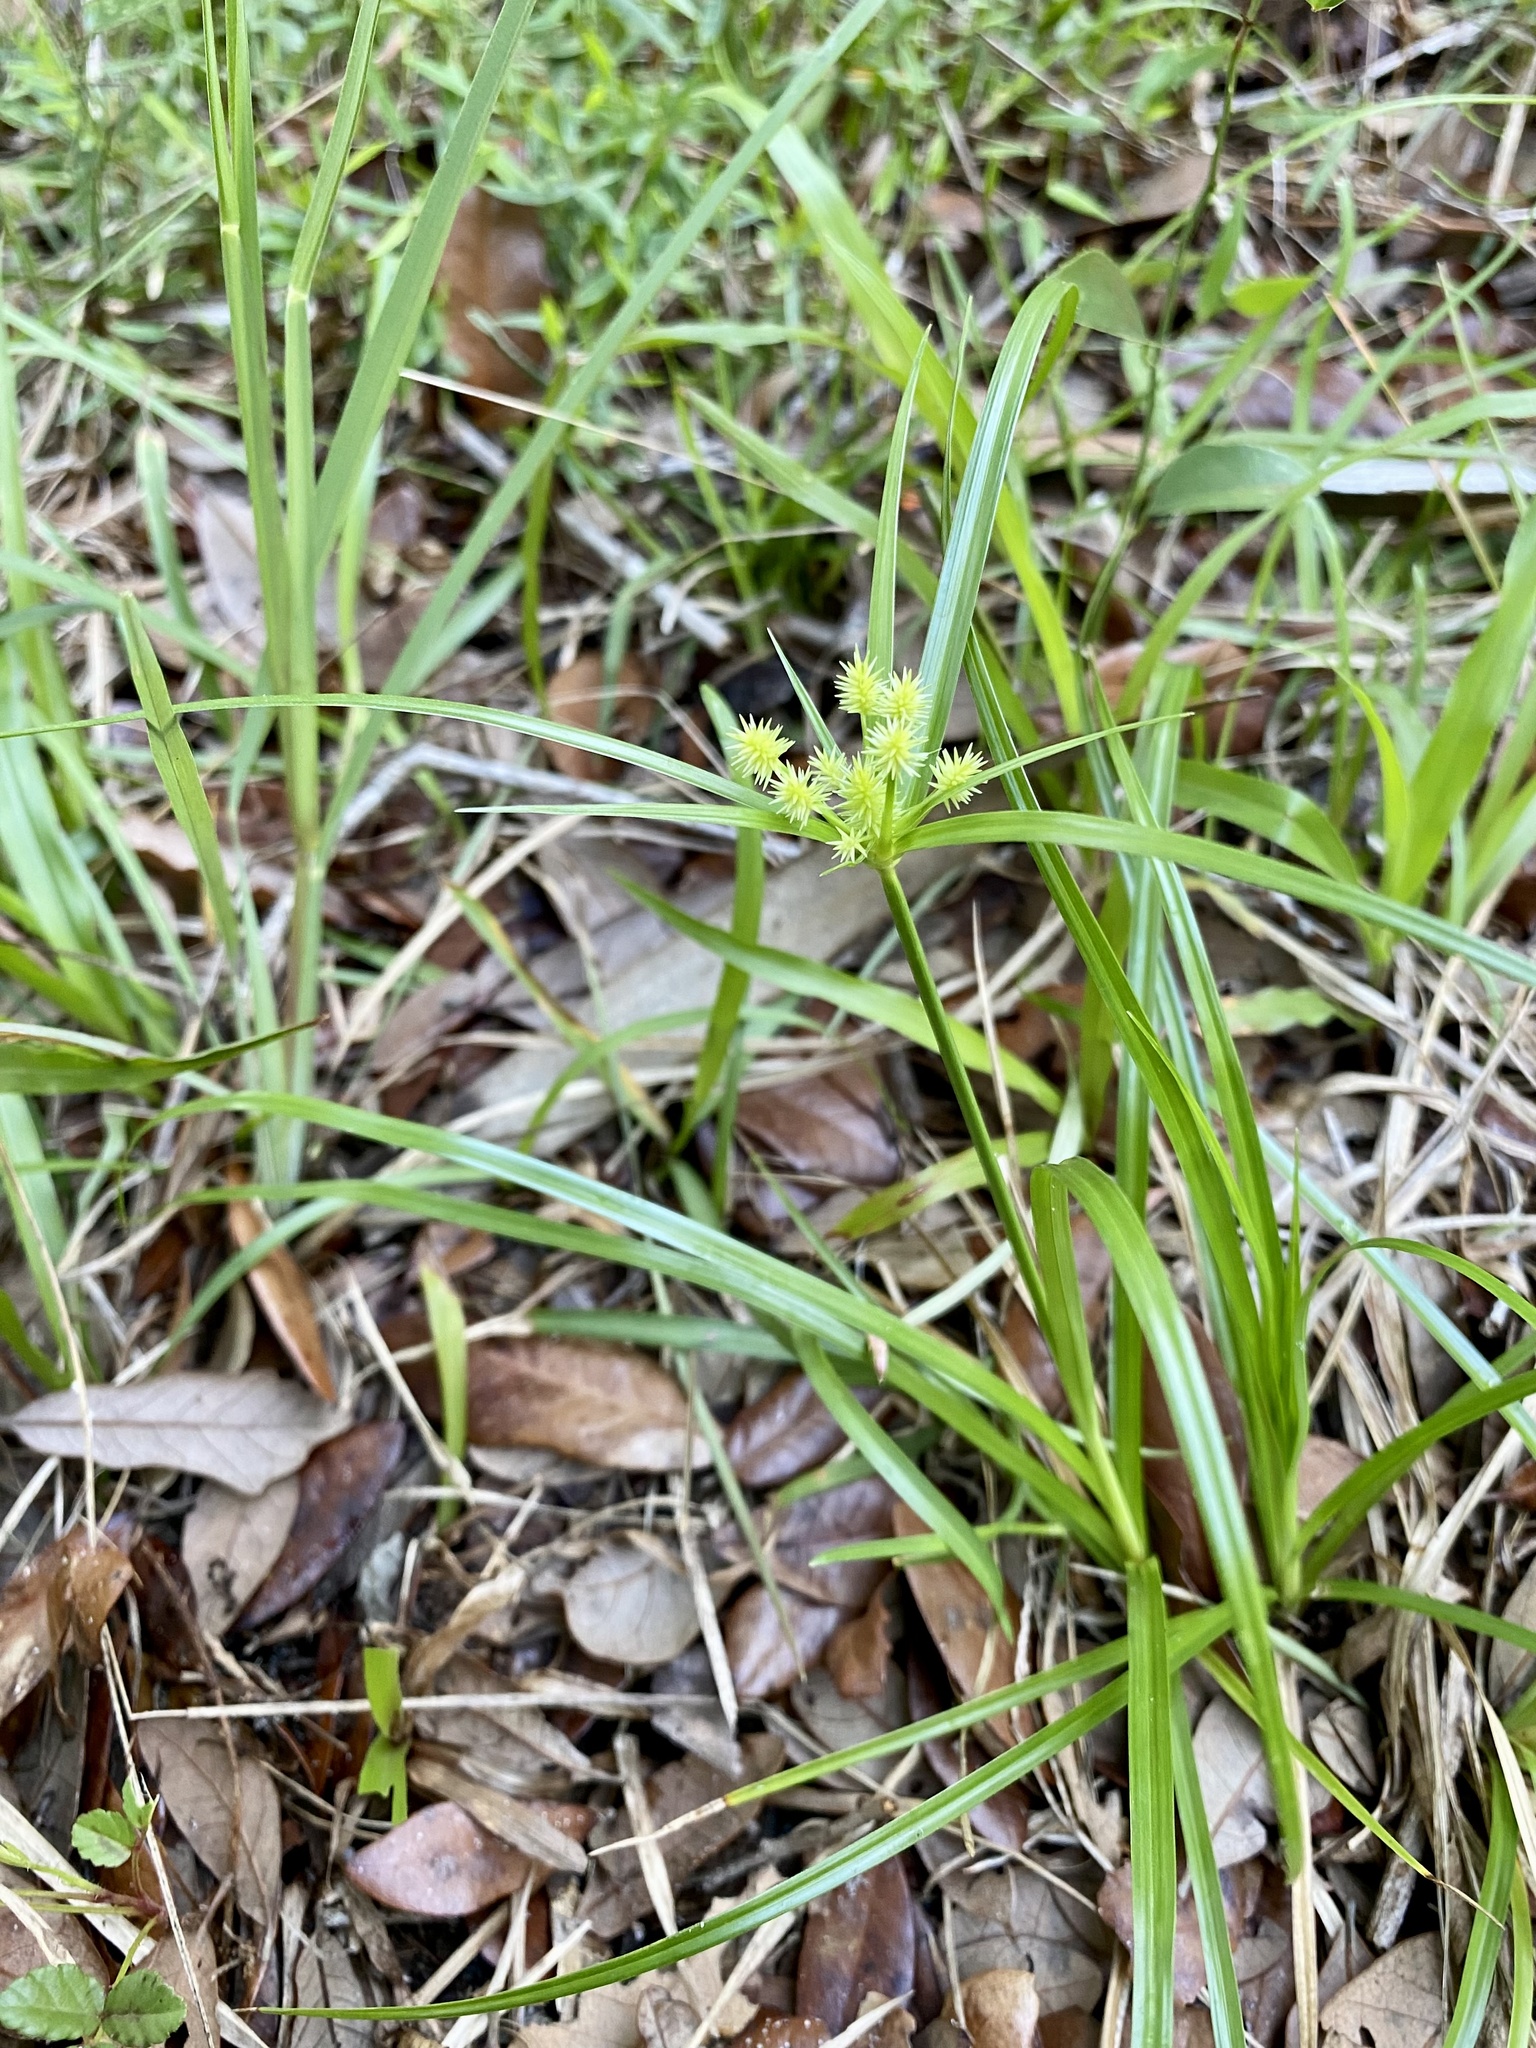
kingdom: Plantae
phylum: Tracheophyta
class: Liliopsida
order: Poales
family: Cyperaceae
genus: Cyperus
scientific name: Cyperus croceus
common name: Baldwin's flatsedge
